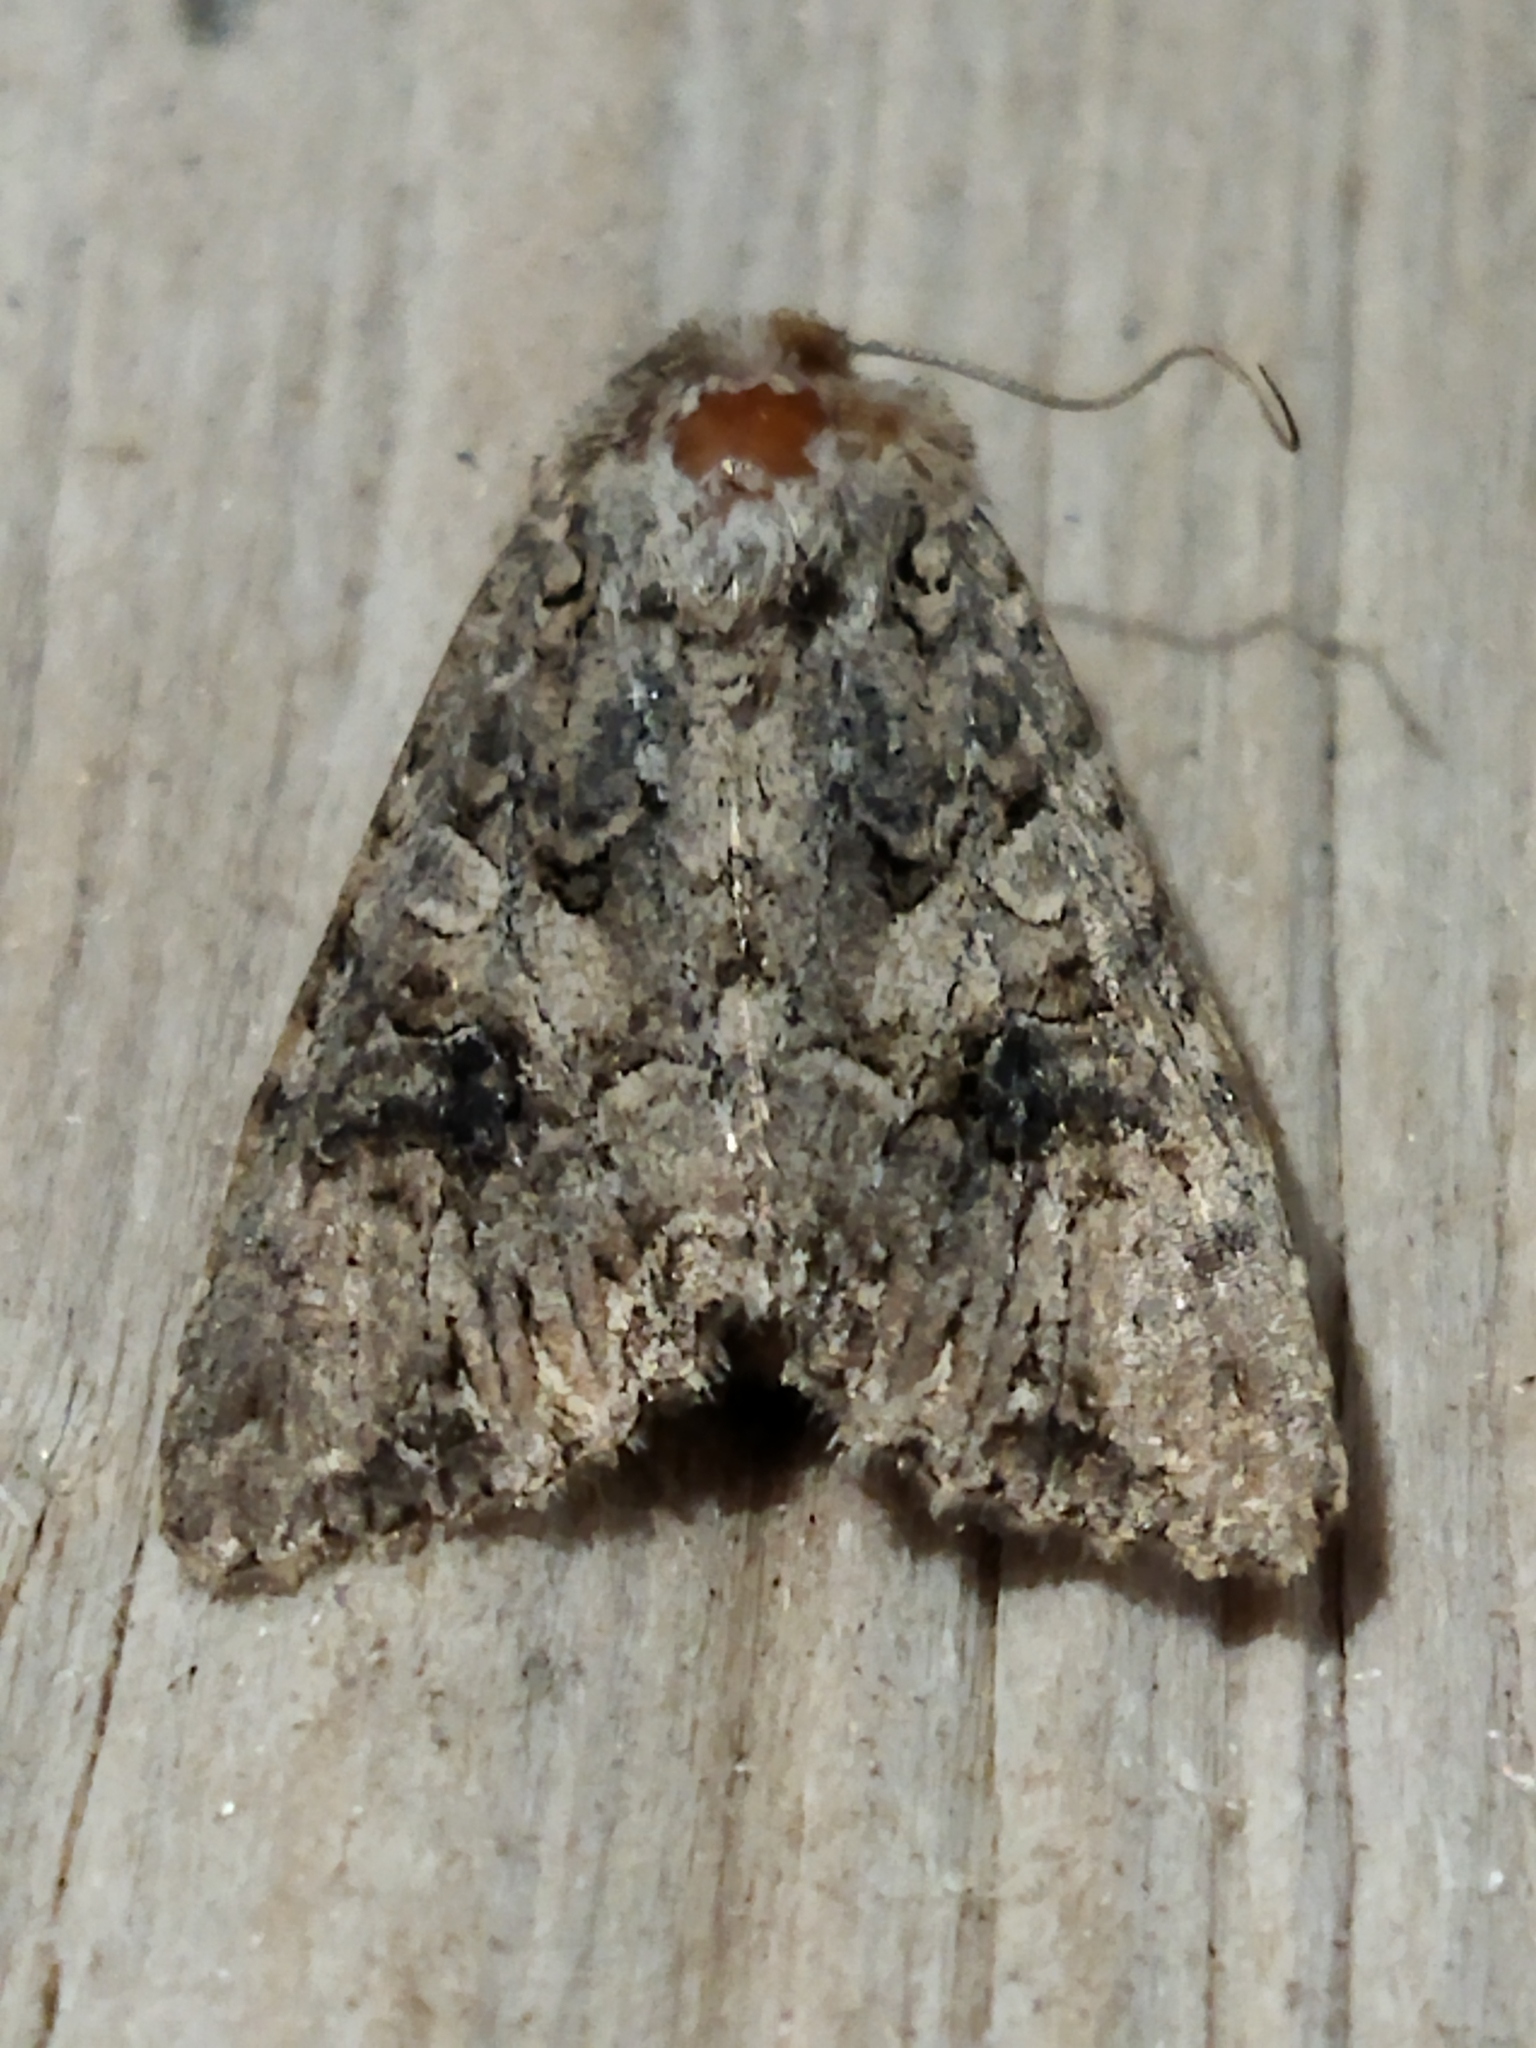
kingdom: Animalia
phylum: Arthropoda
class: Insecta
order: Lepidoptera
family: Noctuidae
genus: Anarta
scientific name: Anarta trifolii
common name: Clover cutworm moth
